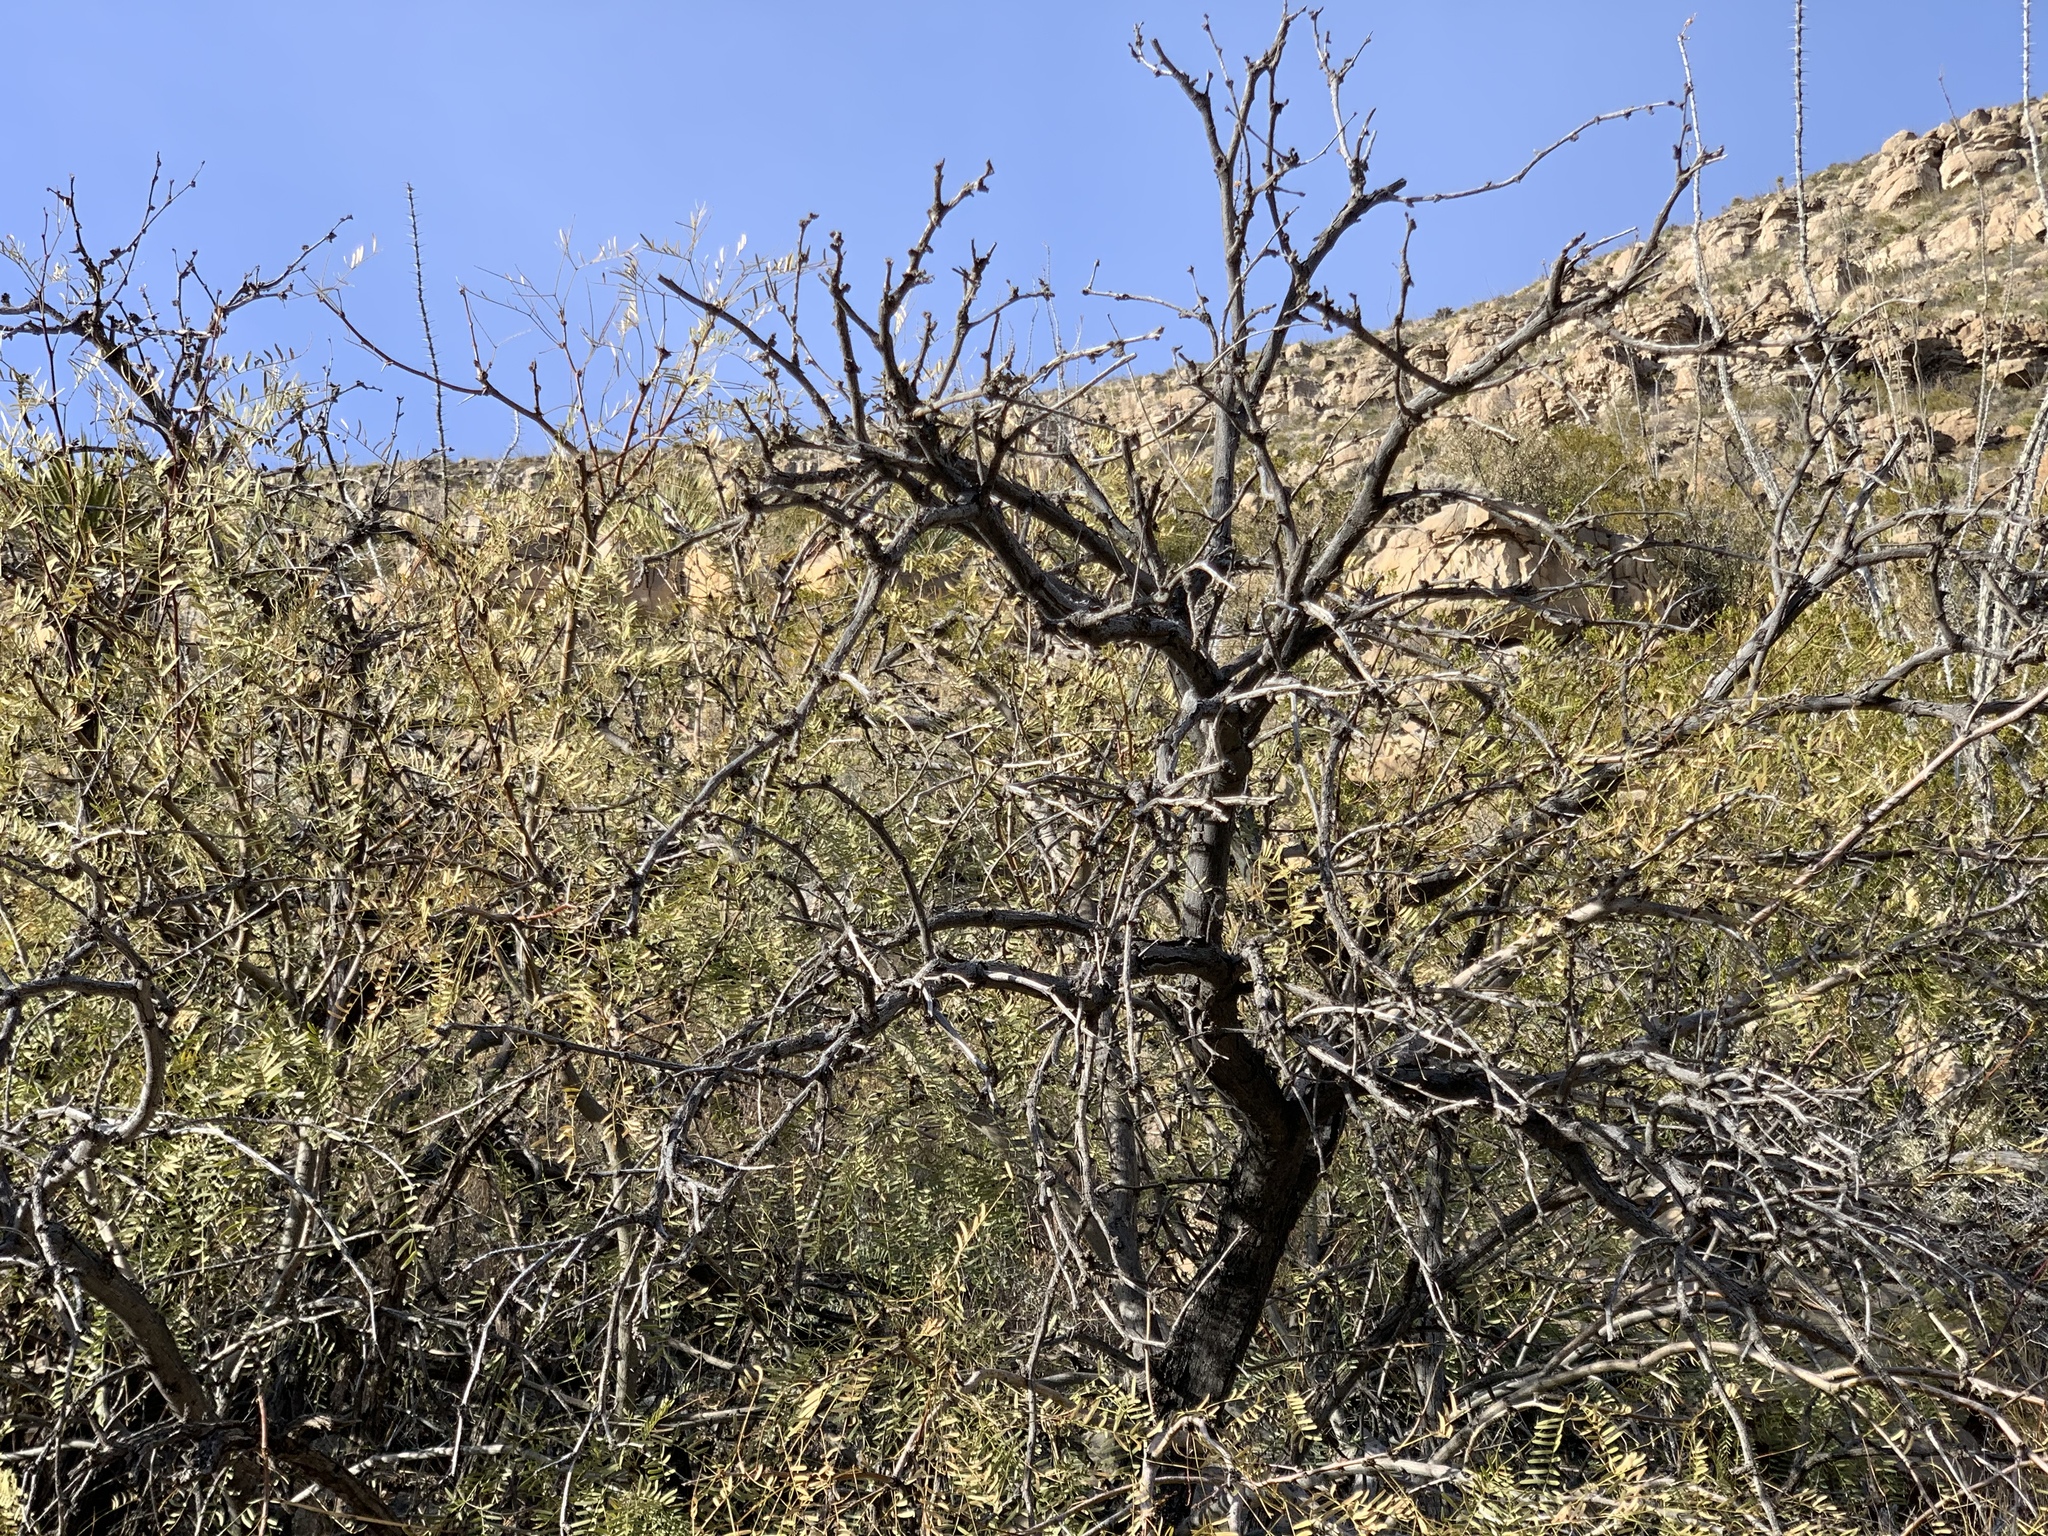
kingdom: Plantae
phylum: Tracheophyta
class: Magnoliopsida
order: Fabales
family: Fabaceae
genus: Prosopis
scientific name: Prosopis glandulosa
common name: Honey mesquite
